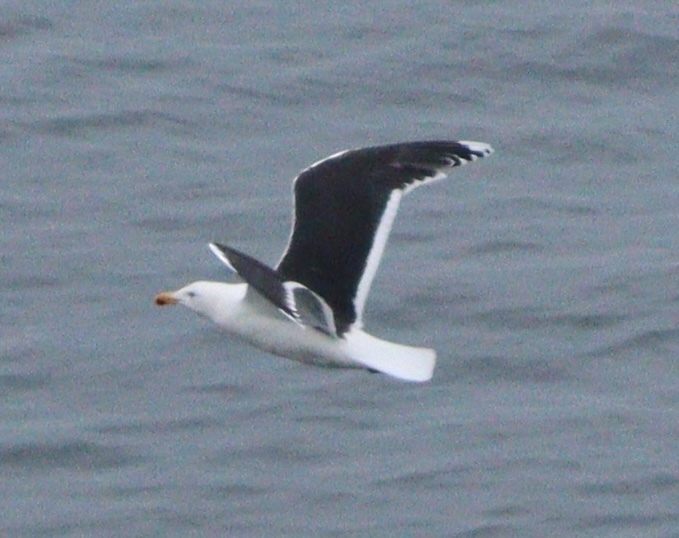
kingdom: Animalia
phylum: Chordata
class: Aves
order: Charadriiformes
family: Laridae
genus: Larus
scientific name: Larus marinus
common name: Great black-backed gull
